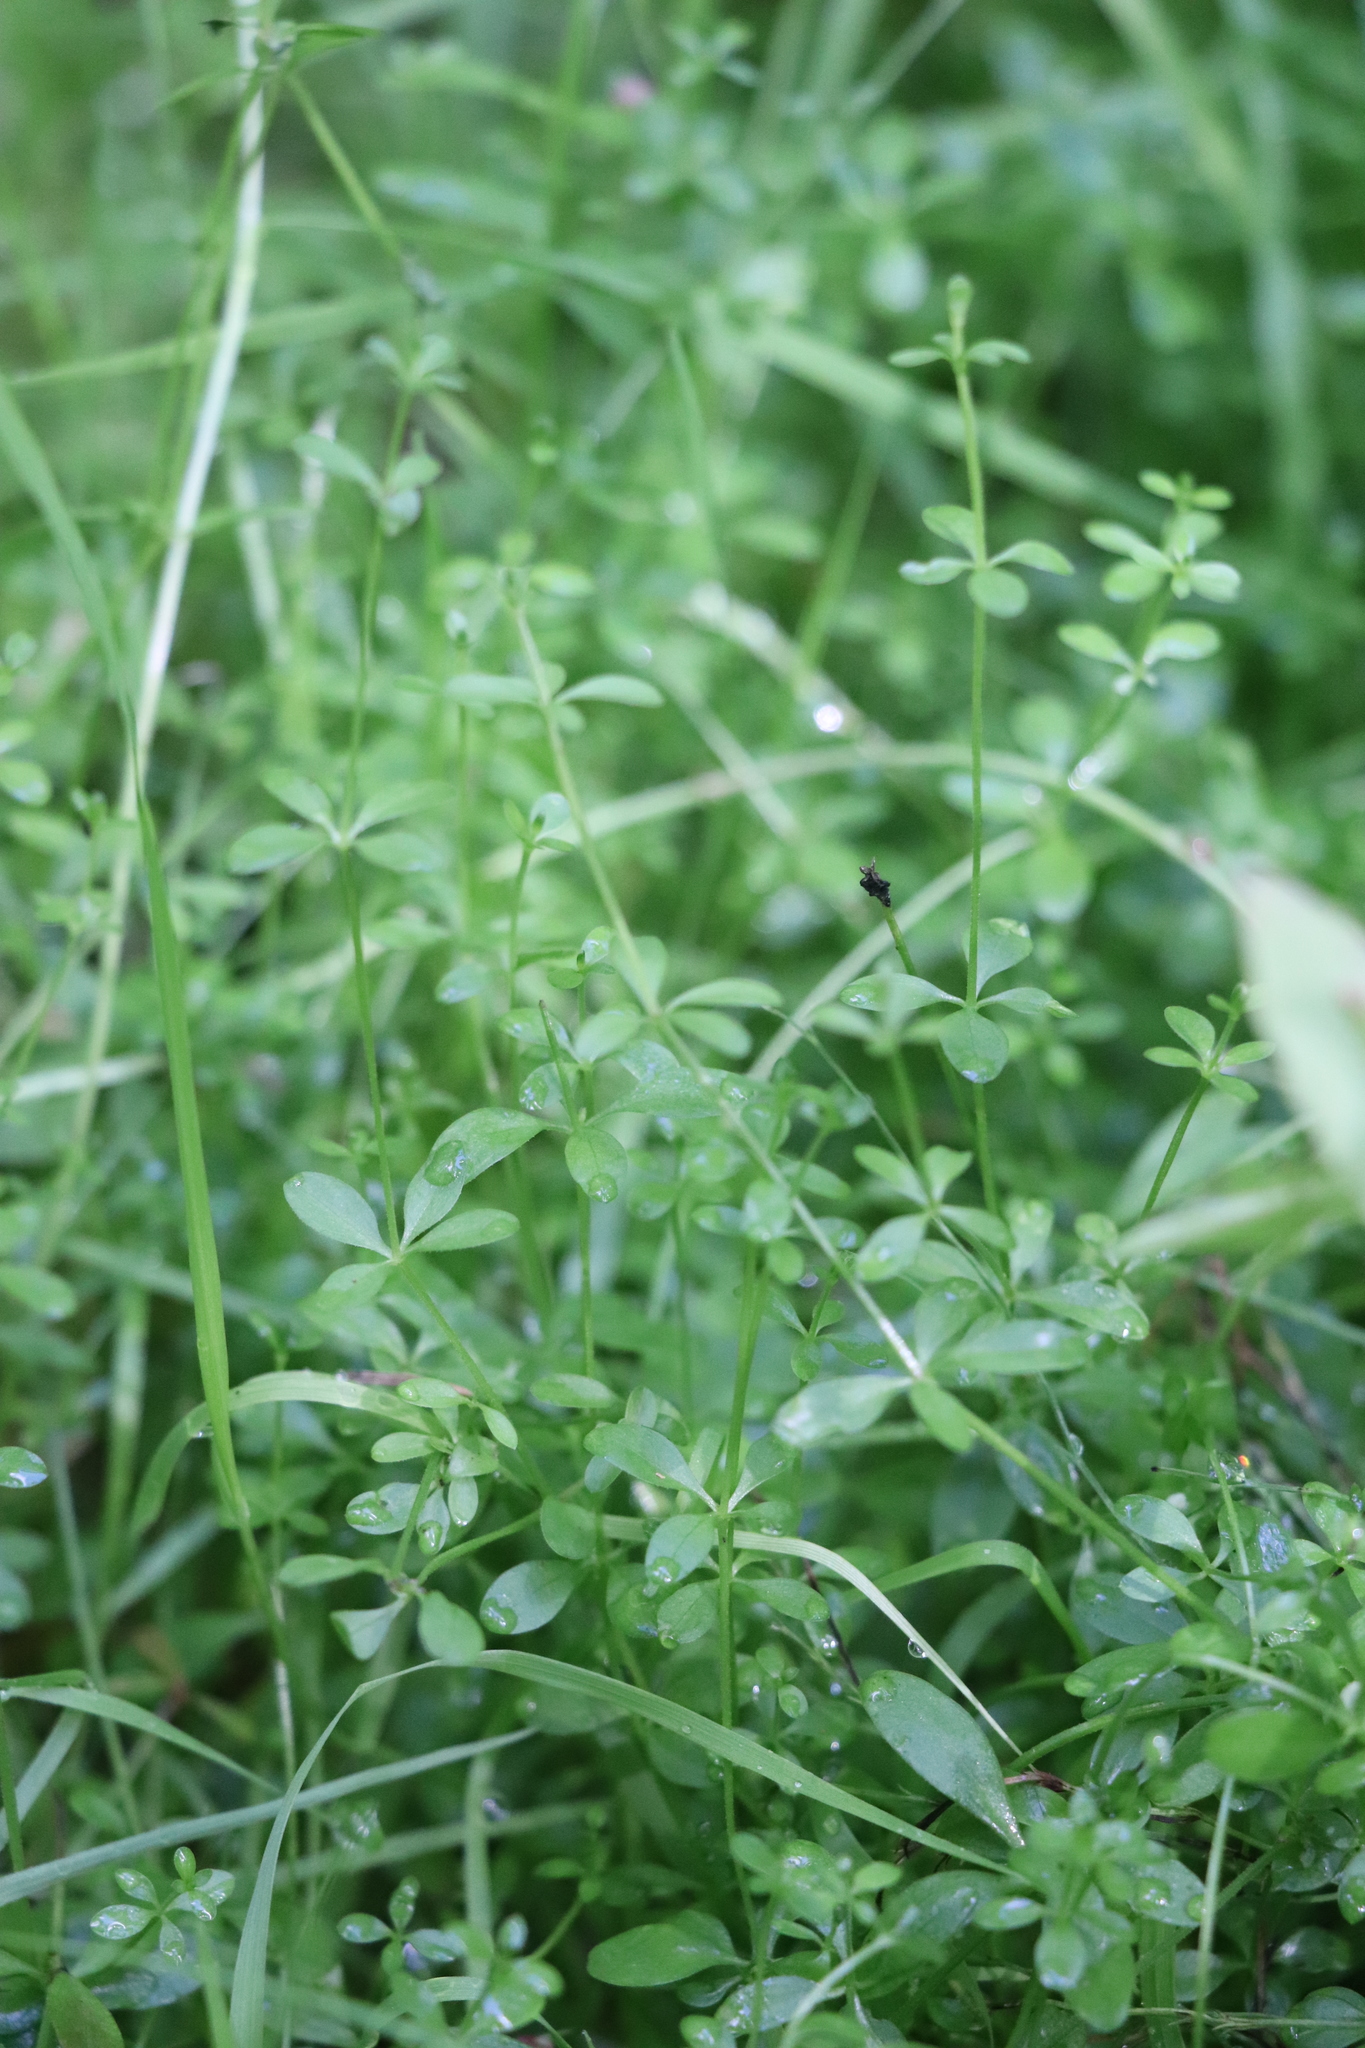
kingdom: Plantae
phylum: Tracheophyta
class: Magnoliopsida
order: Gentianales
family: Rubiaceae
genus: Galium
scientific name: Galium palustre
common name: Common marsh-bedstraw
